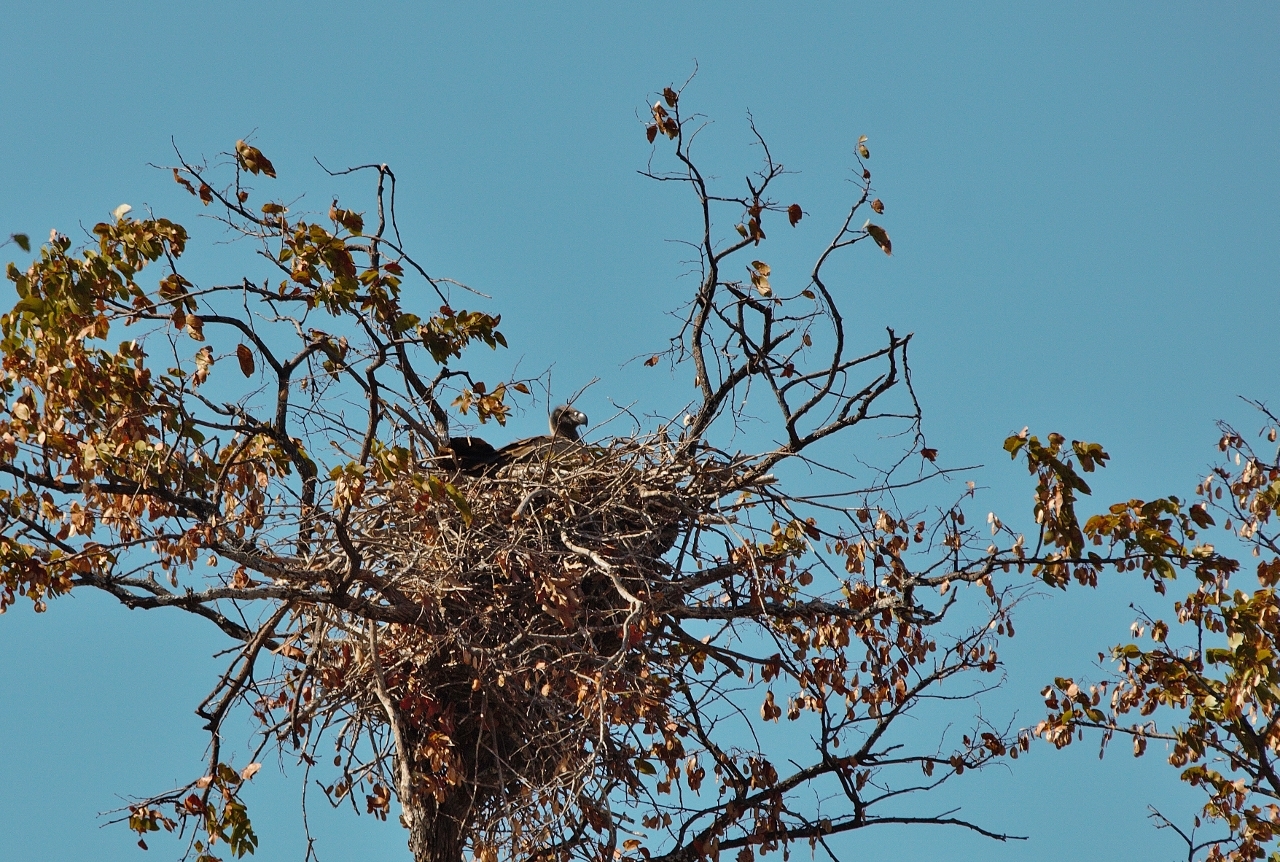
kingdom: Animalia
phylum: Chordata
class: Aves
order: Accipitriformes
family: Accipitridae
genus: Gyps
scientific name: Gyps africanus
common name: White-backed vulture
